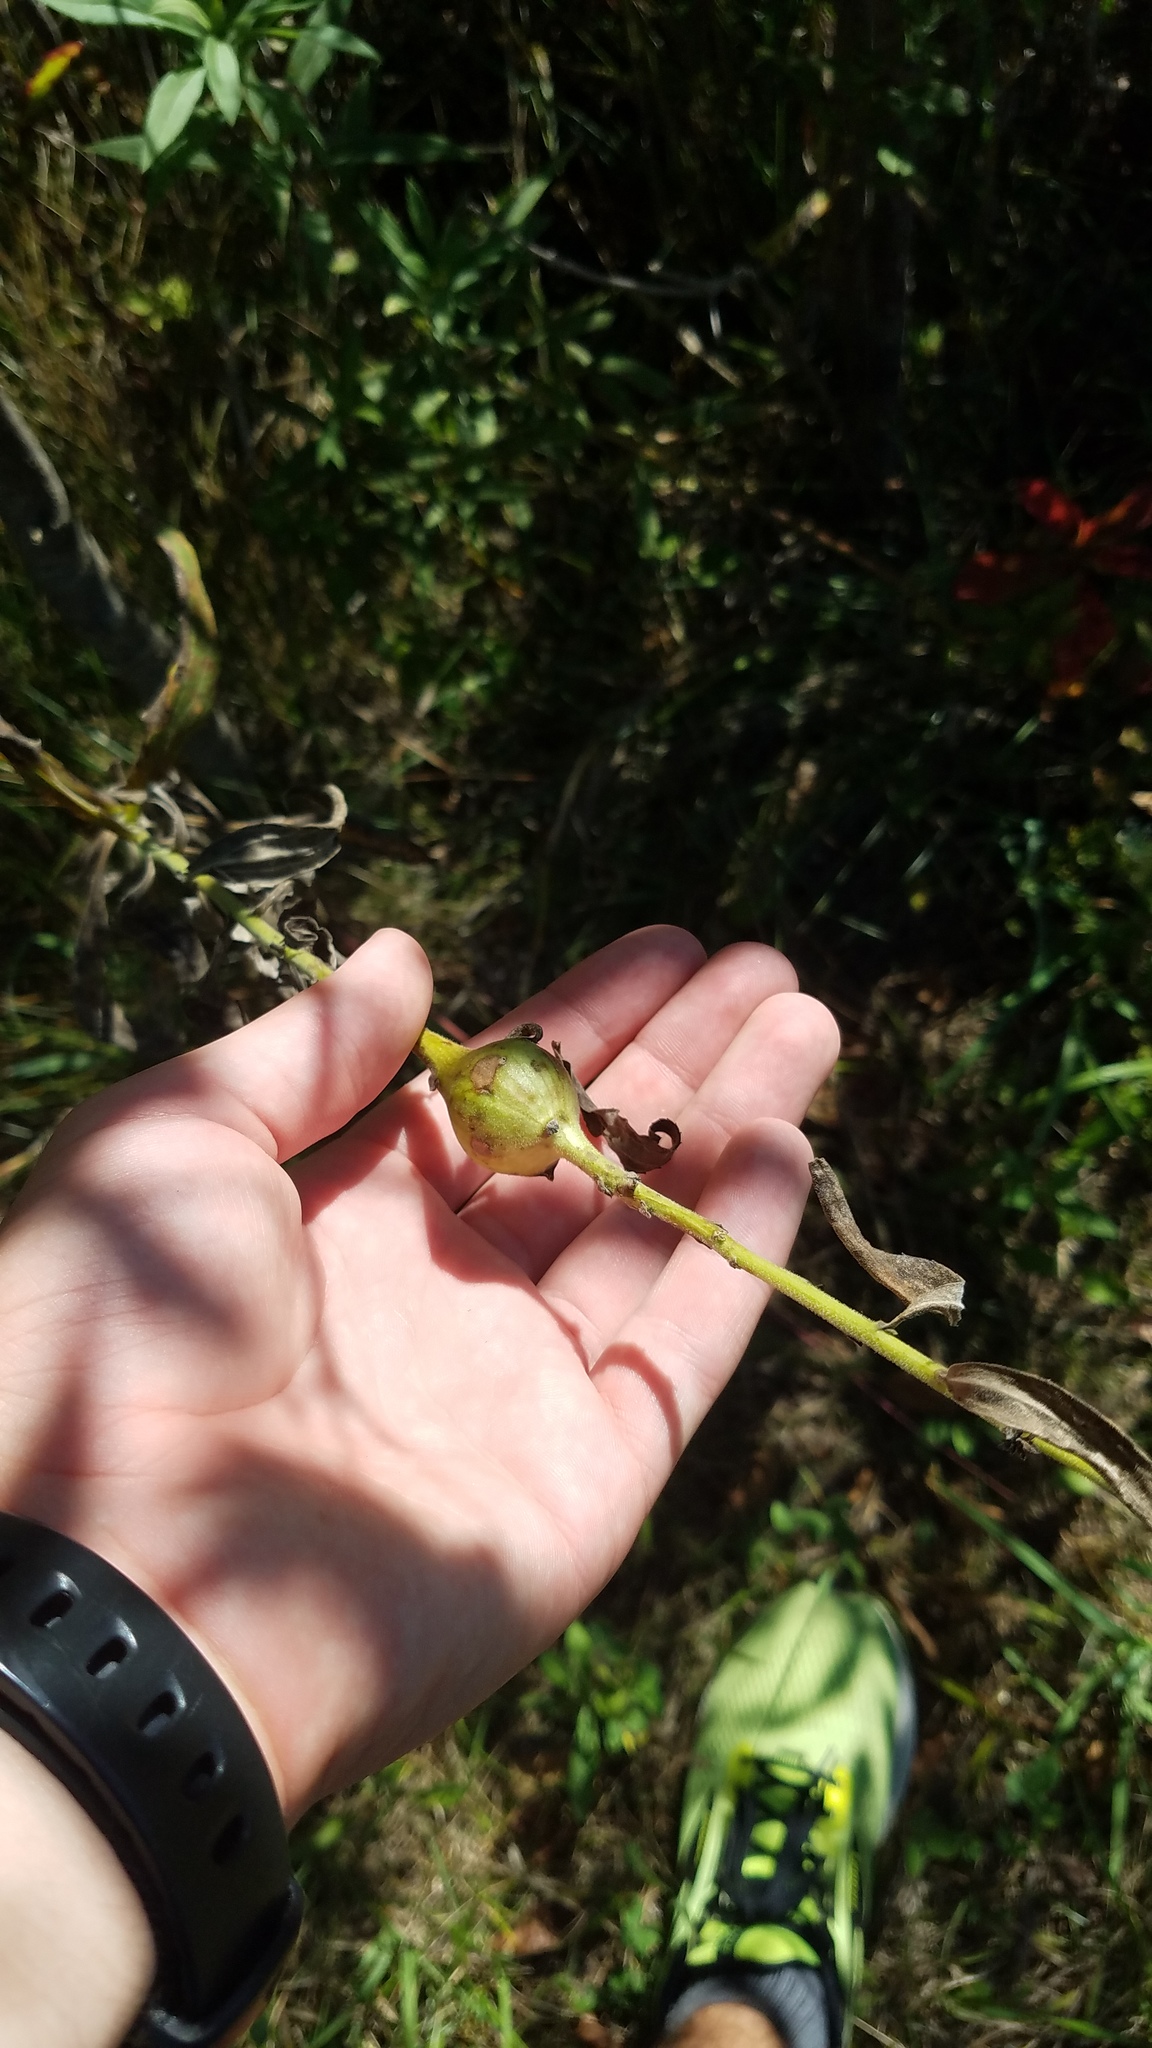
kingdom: Animalia
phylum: Arthropoda
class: Insecta
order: Diptera
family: Tephritidae
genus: Eurosta
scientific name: Eurosta solidaginis
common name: Goldenrod gall fly
